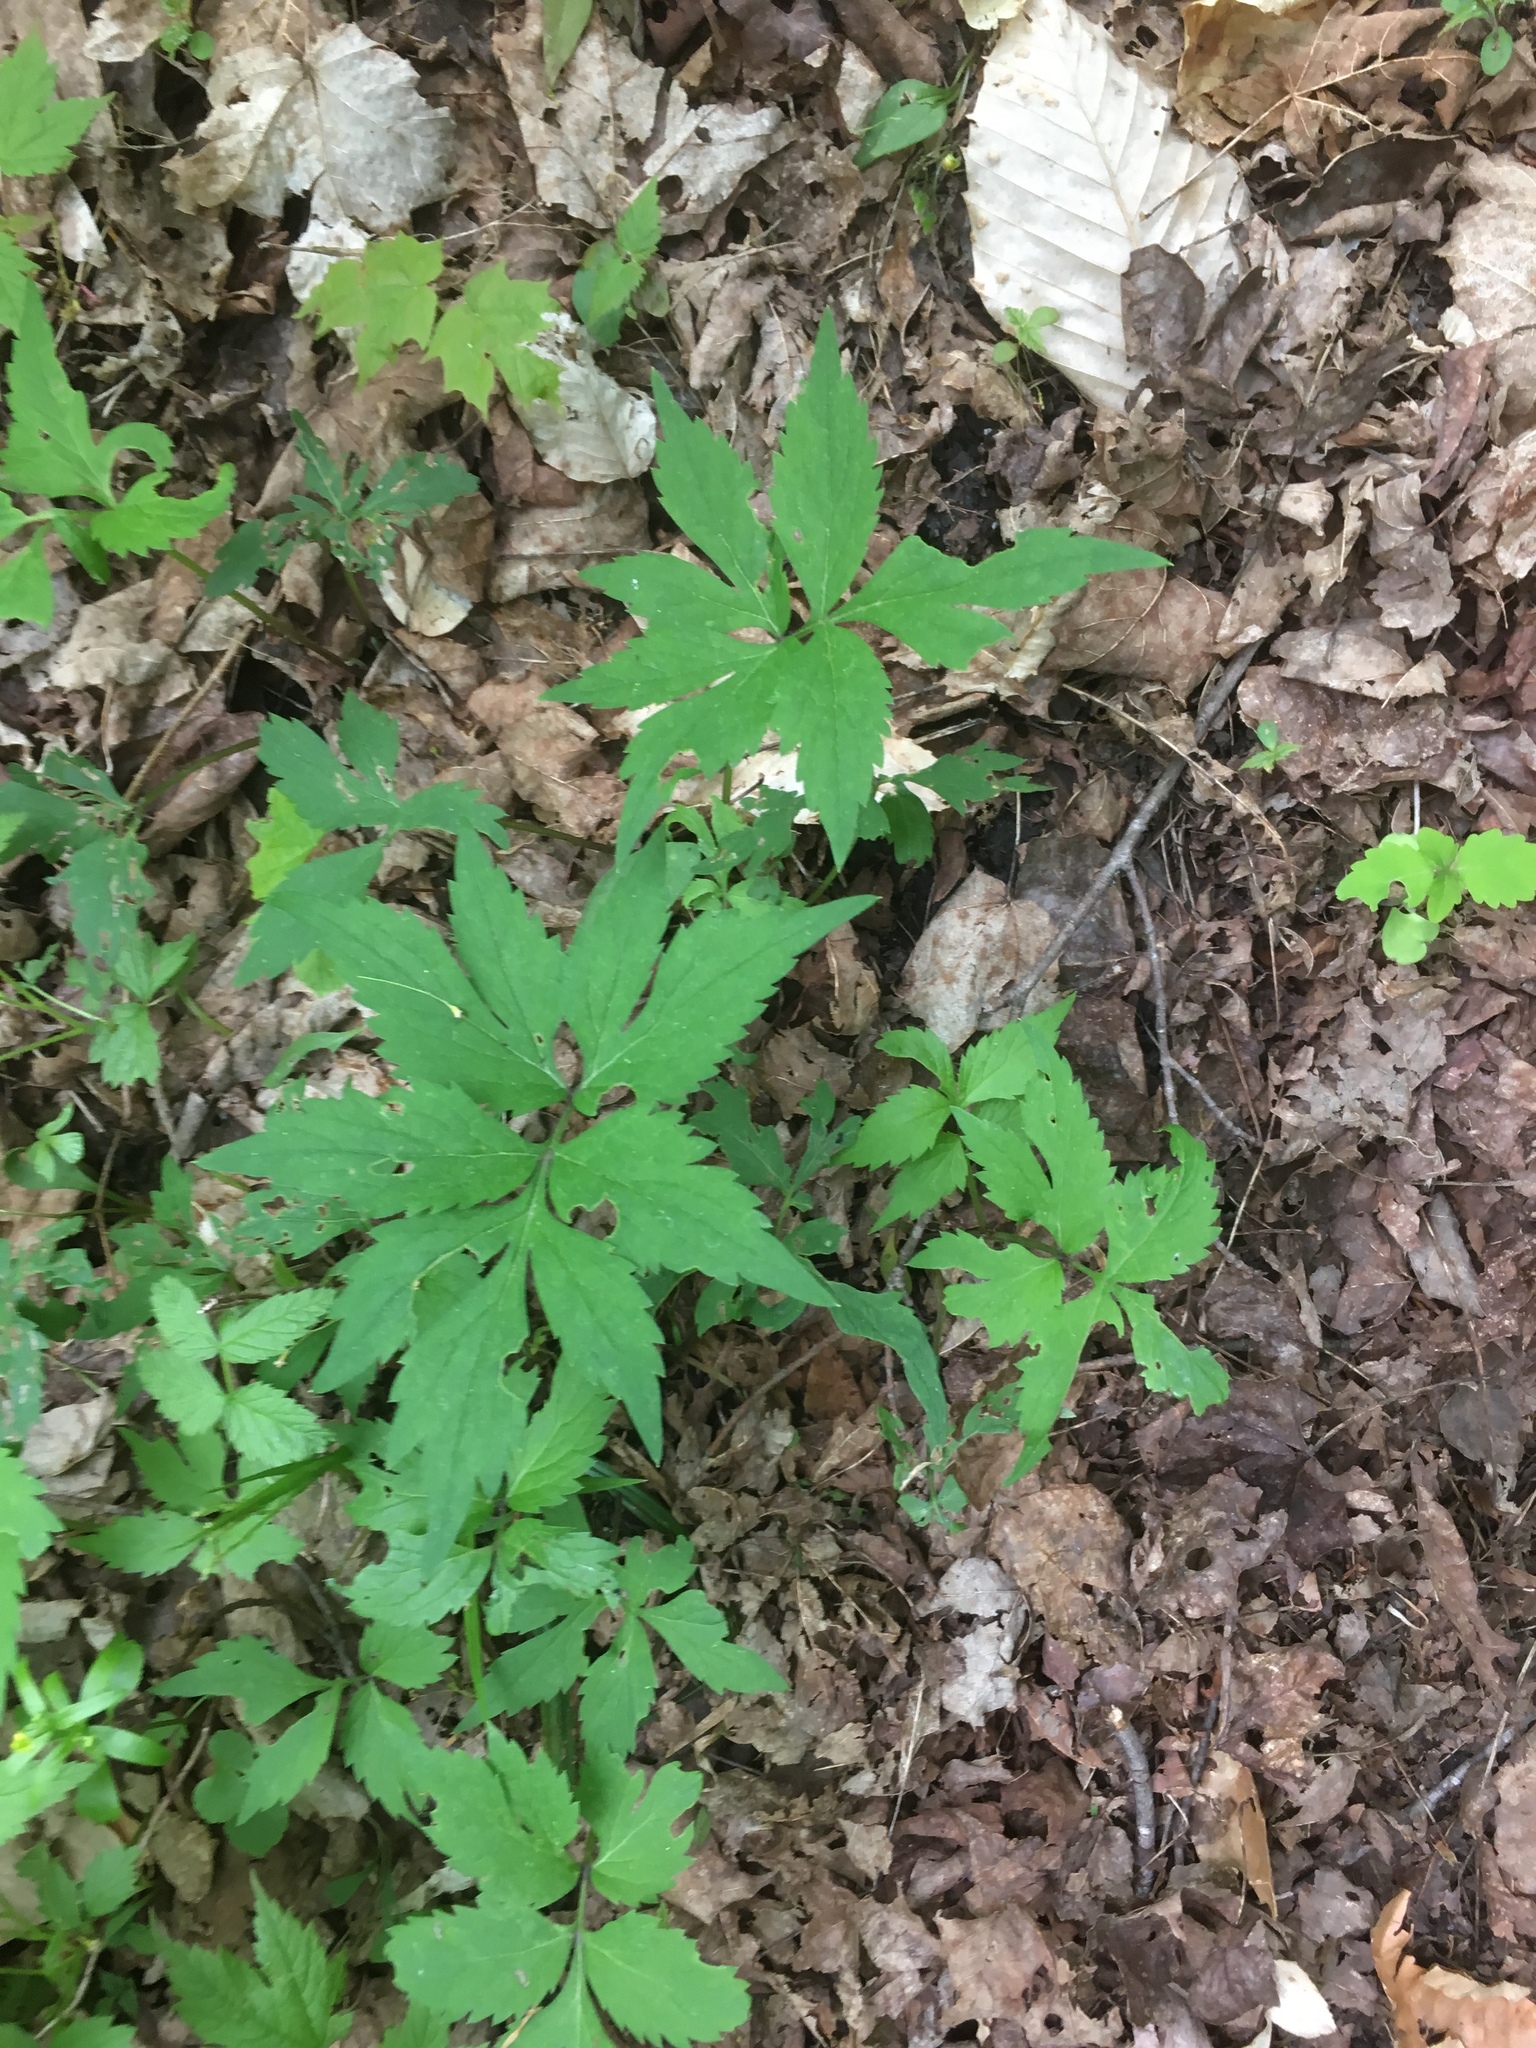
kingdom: Plantae
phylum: Tracheophyta
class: Magnoliopsida
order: Boraginales
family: Hydrophyllaceae
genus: Hydrophyllum
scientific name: Hydrophyllum virginianum
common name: Virginia waterleaf
